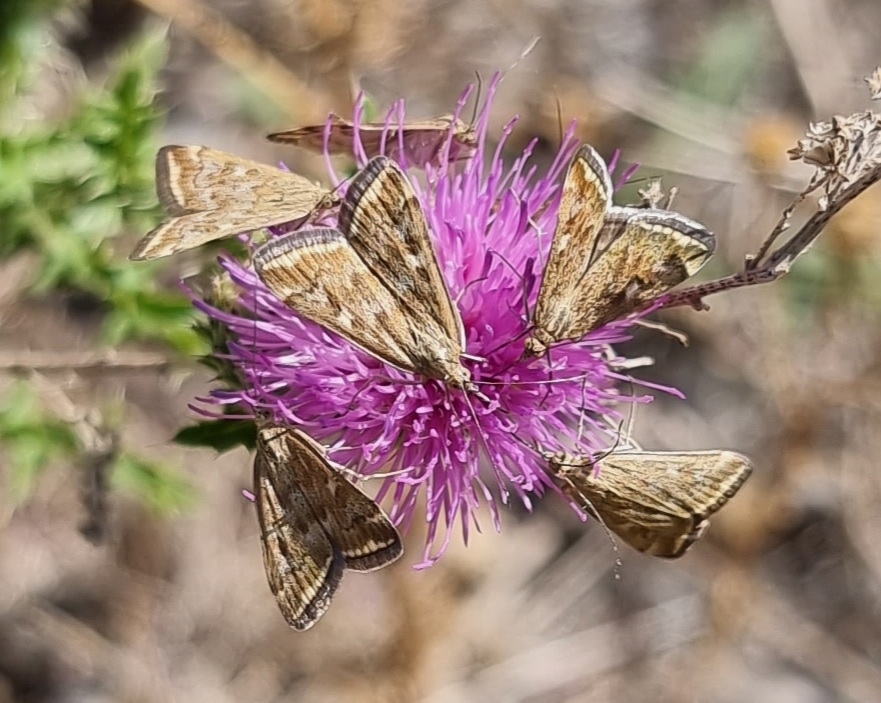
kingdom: Animalia
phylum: Arthropoda
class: Insecta
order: Lepidoptera
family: Crambidae
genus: Loxostege
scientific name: Loxostege sticticalis
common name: Crambid moth
